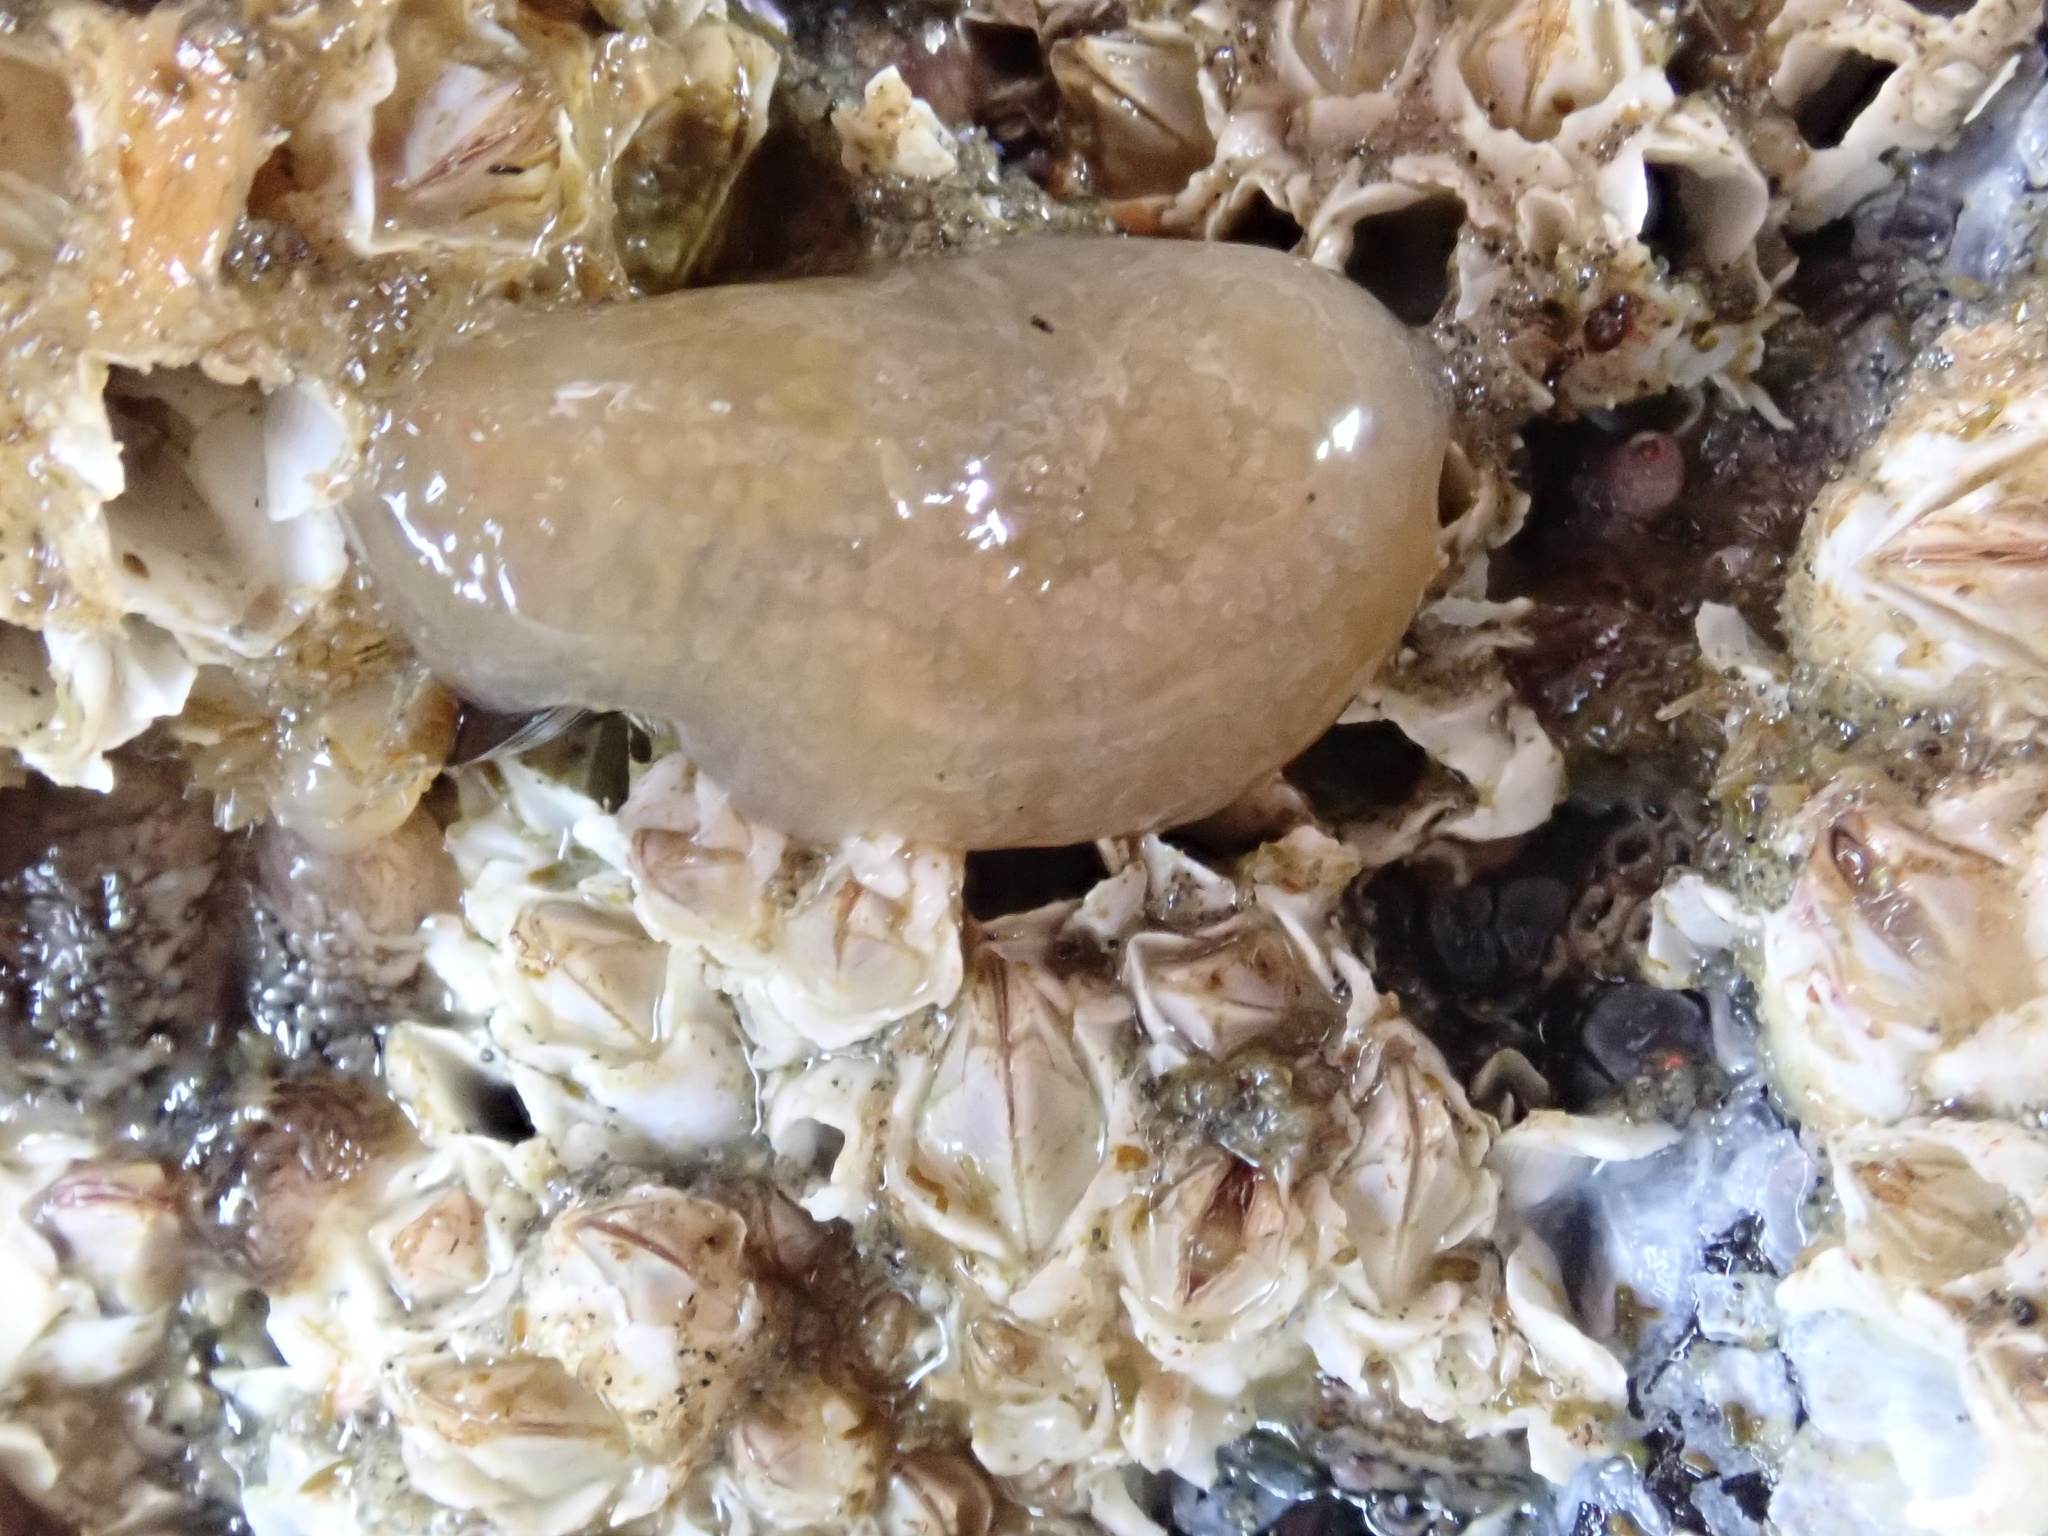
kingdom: Animalia
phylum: Chordata
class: Ascidiacea
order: Aplousobranchia
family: Polyclinidae
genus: Aplidium
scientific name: Aplidium californicum
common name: Sea pork
